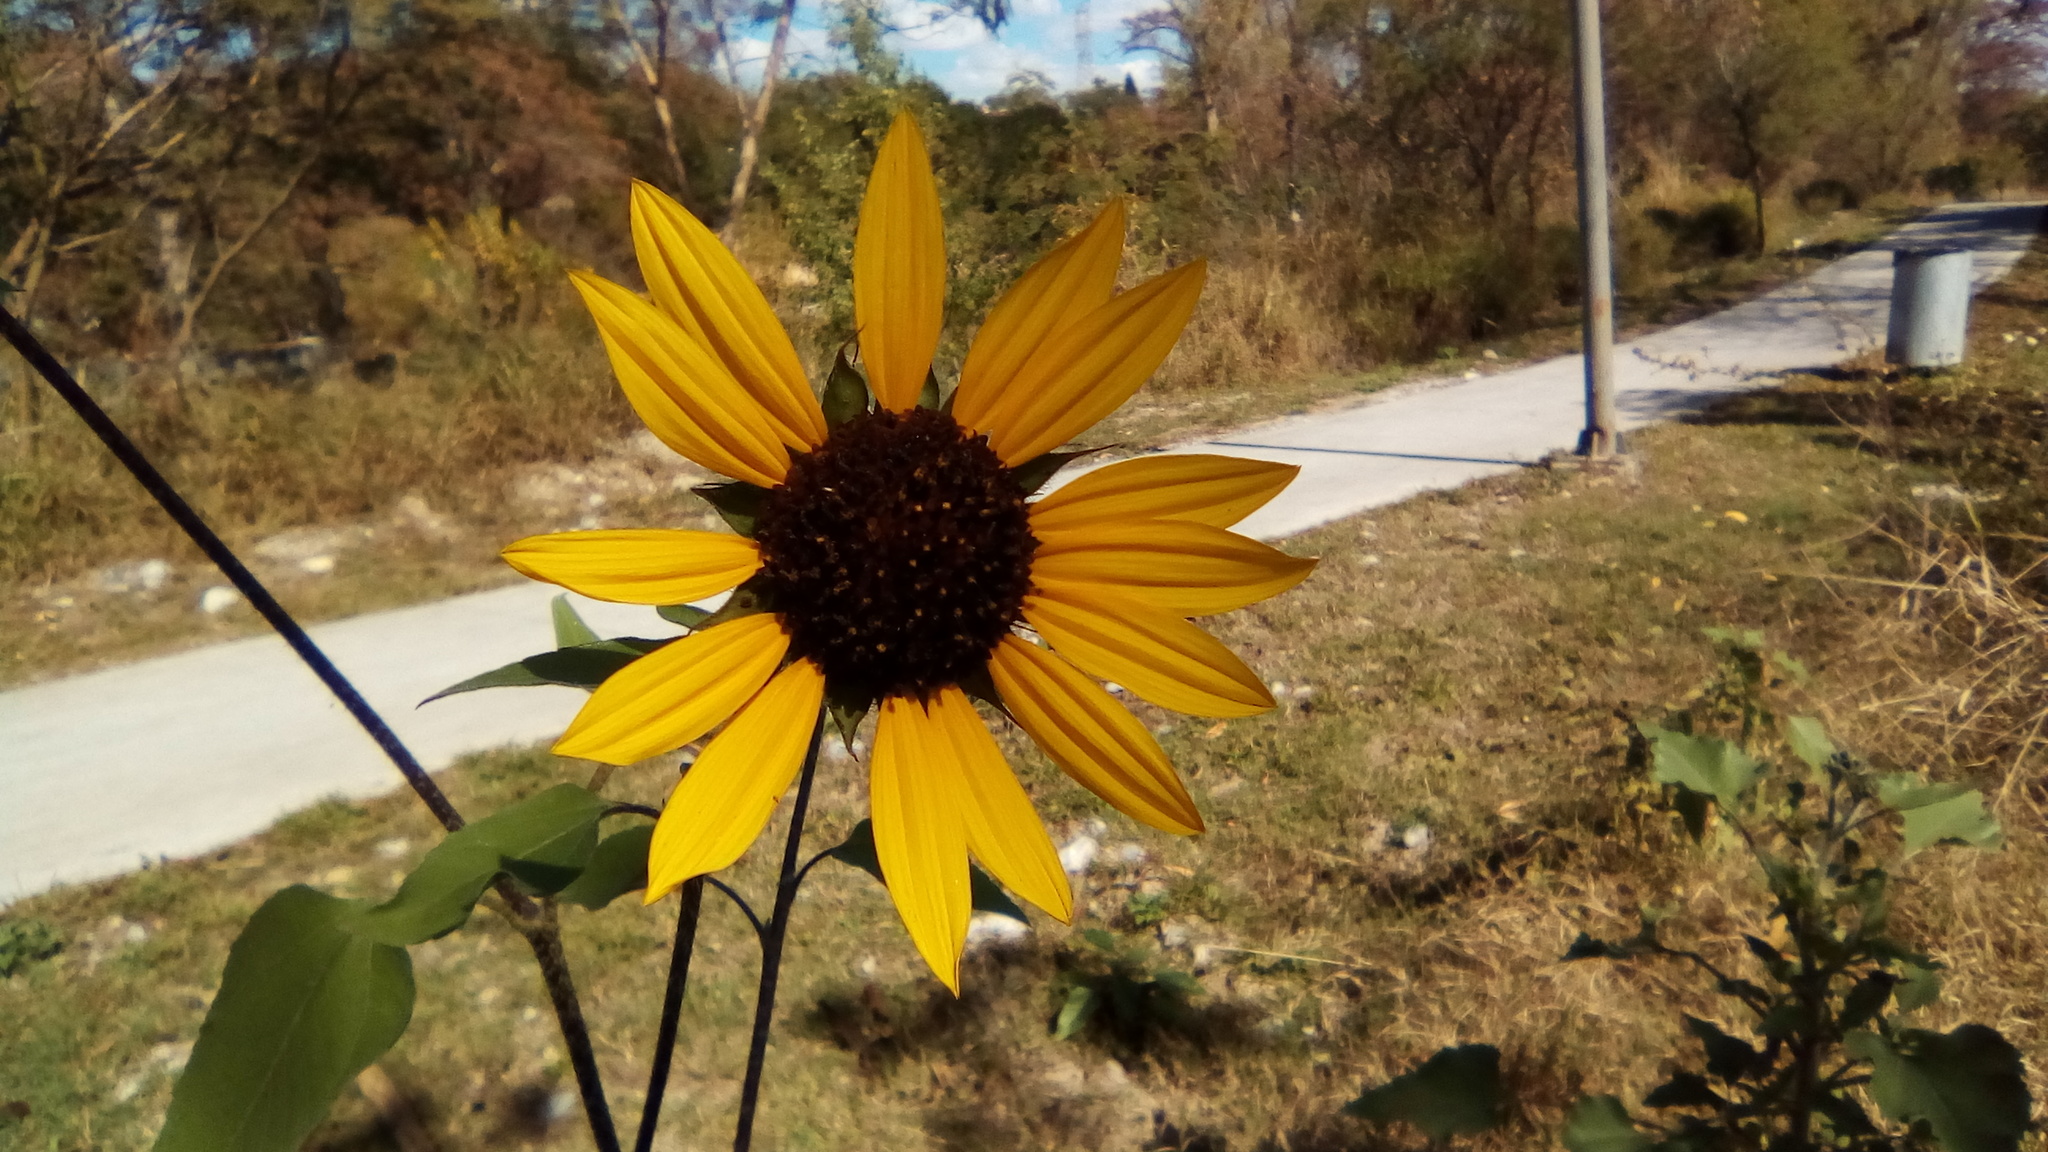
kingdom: Plantae
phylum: Tracheophyta
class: Magnoliopsida
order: Asterales
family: Asteraceae
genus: Helianthus
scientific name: Helianthus annuus
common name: Sunflower
